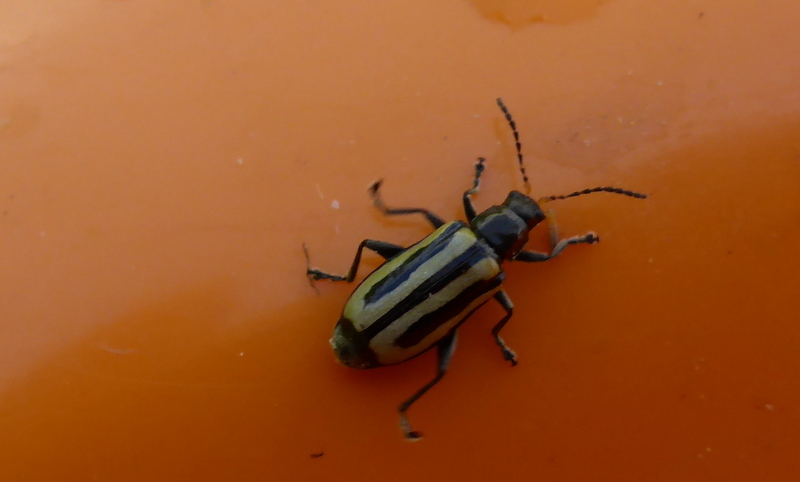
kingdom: Animalia
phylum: Arthropoda
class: Insecta
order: Coleoptera
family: Chrysomelidae
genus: Agasicles
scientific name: Agasicles hygrophila
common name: Alligatorweed flea beetle
